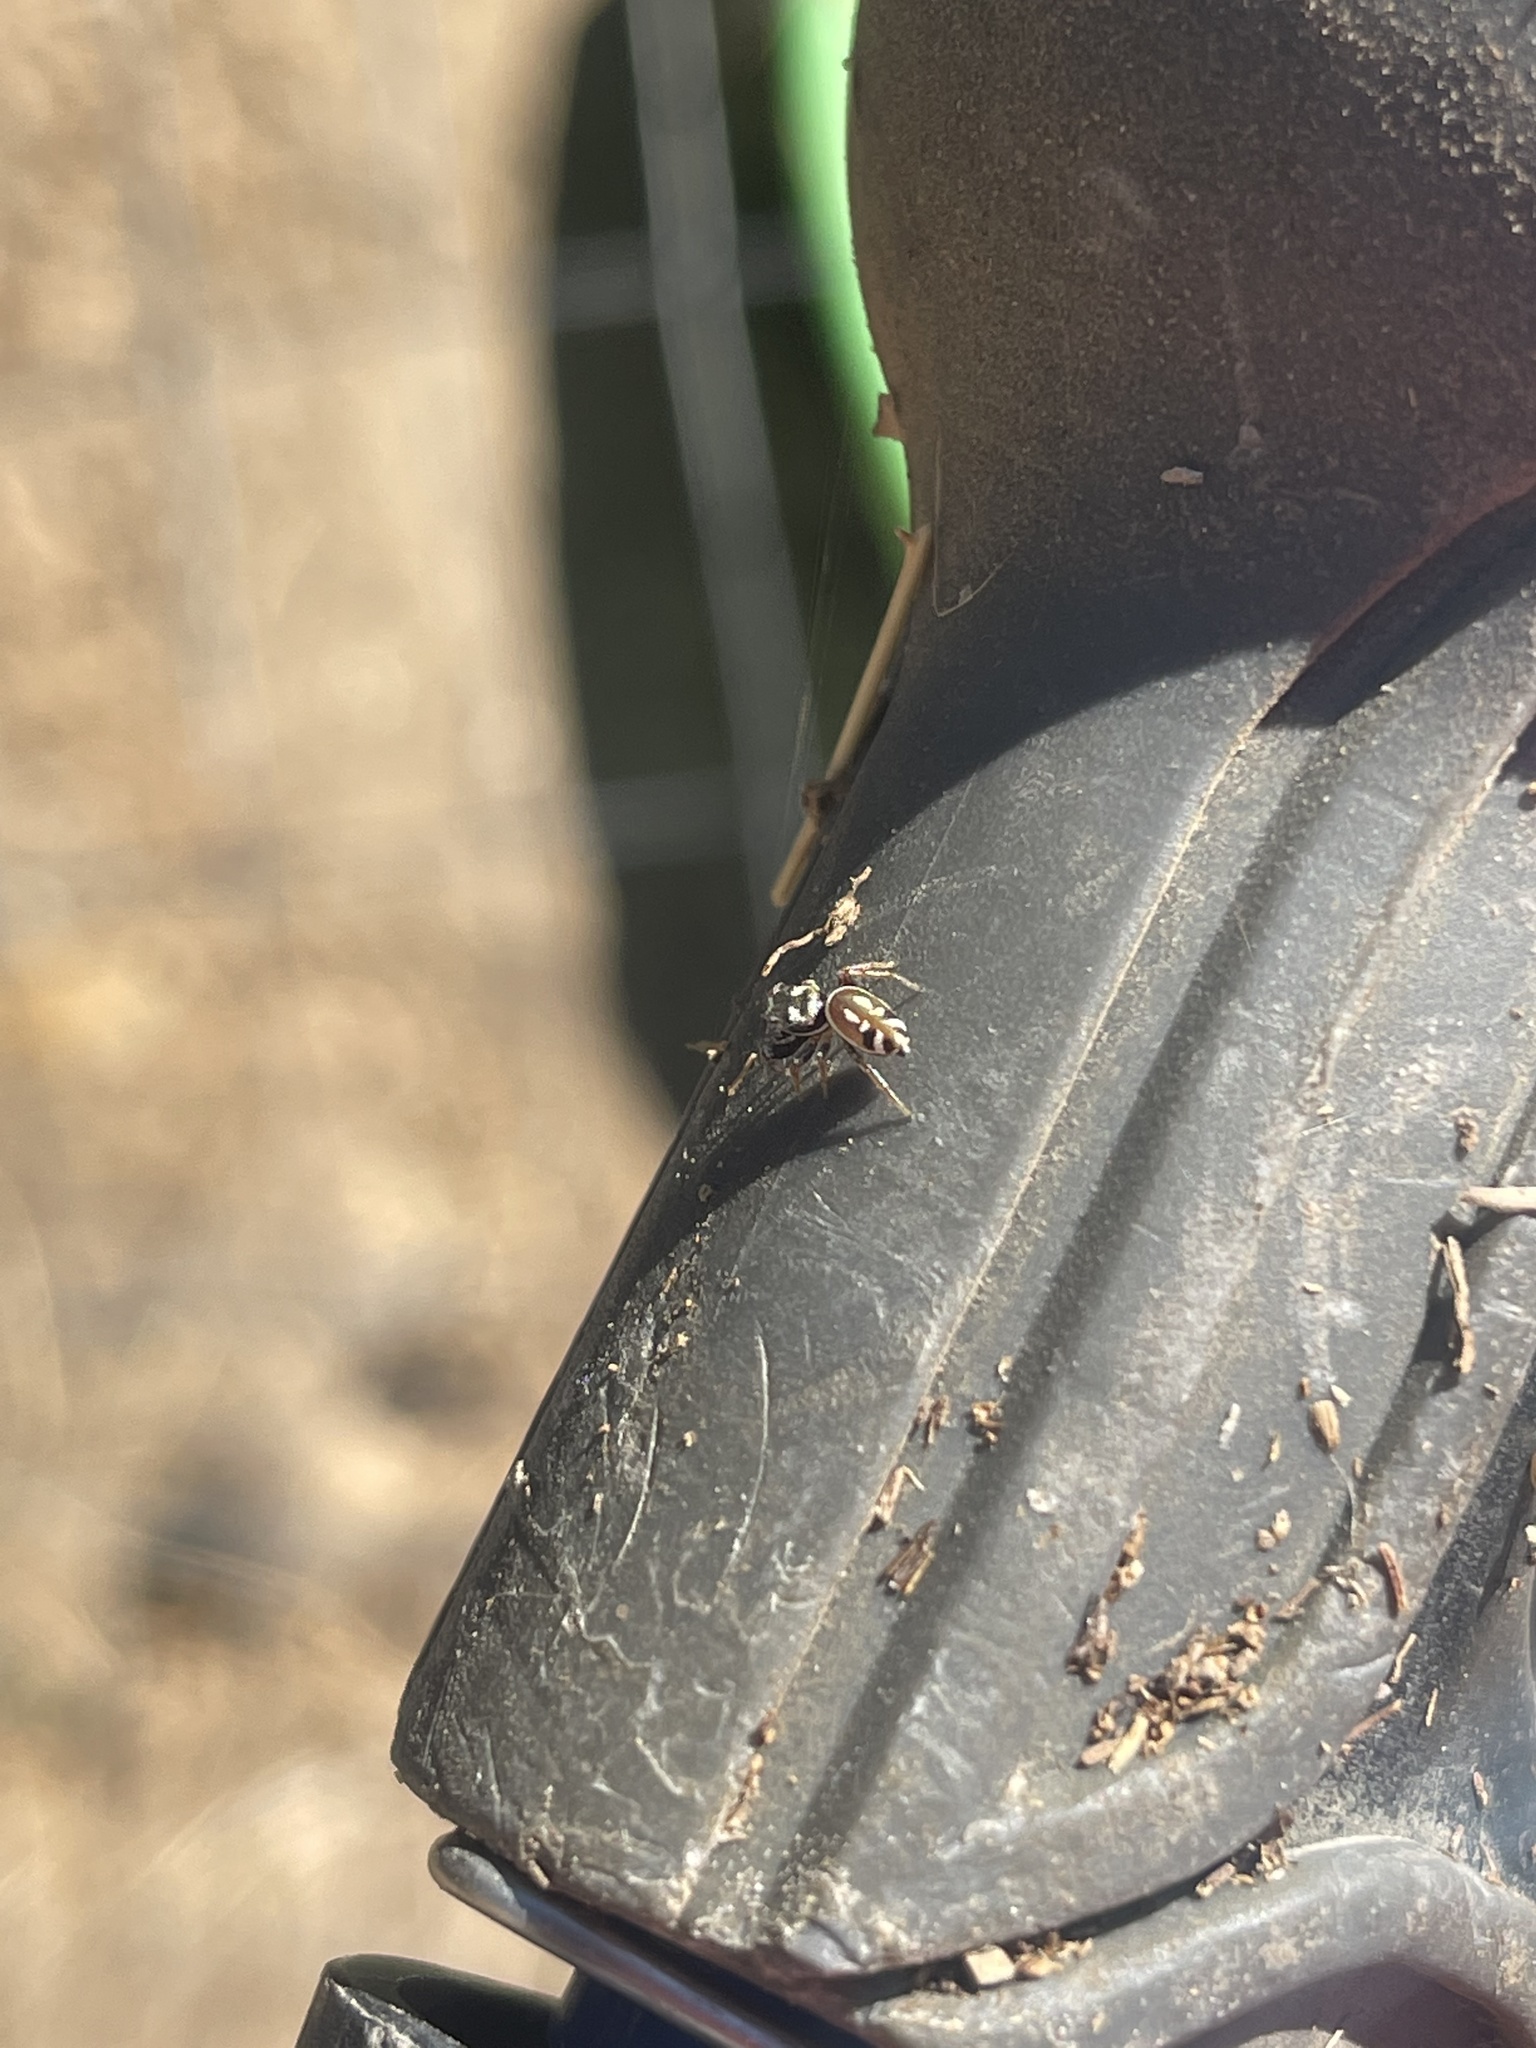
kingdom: Animalia
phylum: Arthropoda
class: Arachnida
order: Araneae
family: Salticidae
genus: Sassacus
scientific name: Sassacus vitis
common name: Jumping spiders
